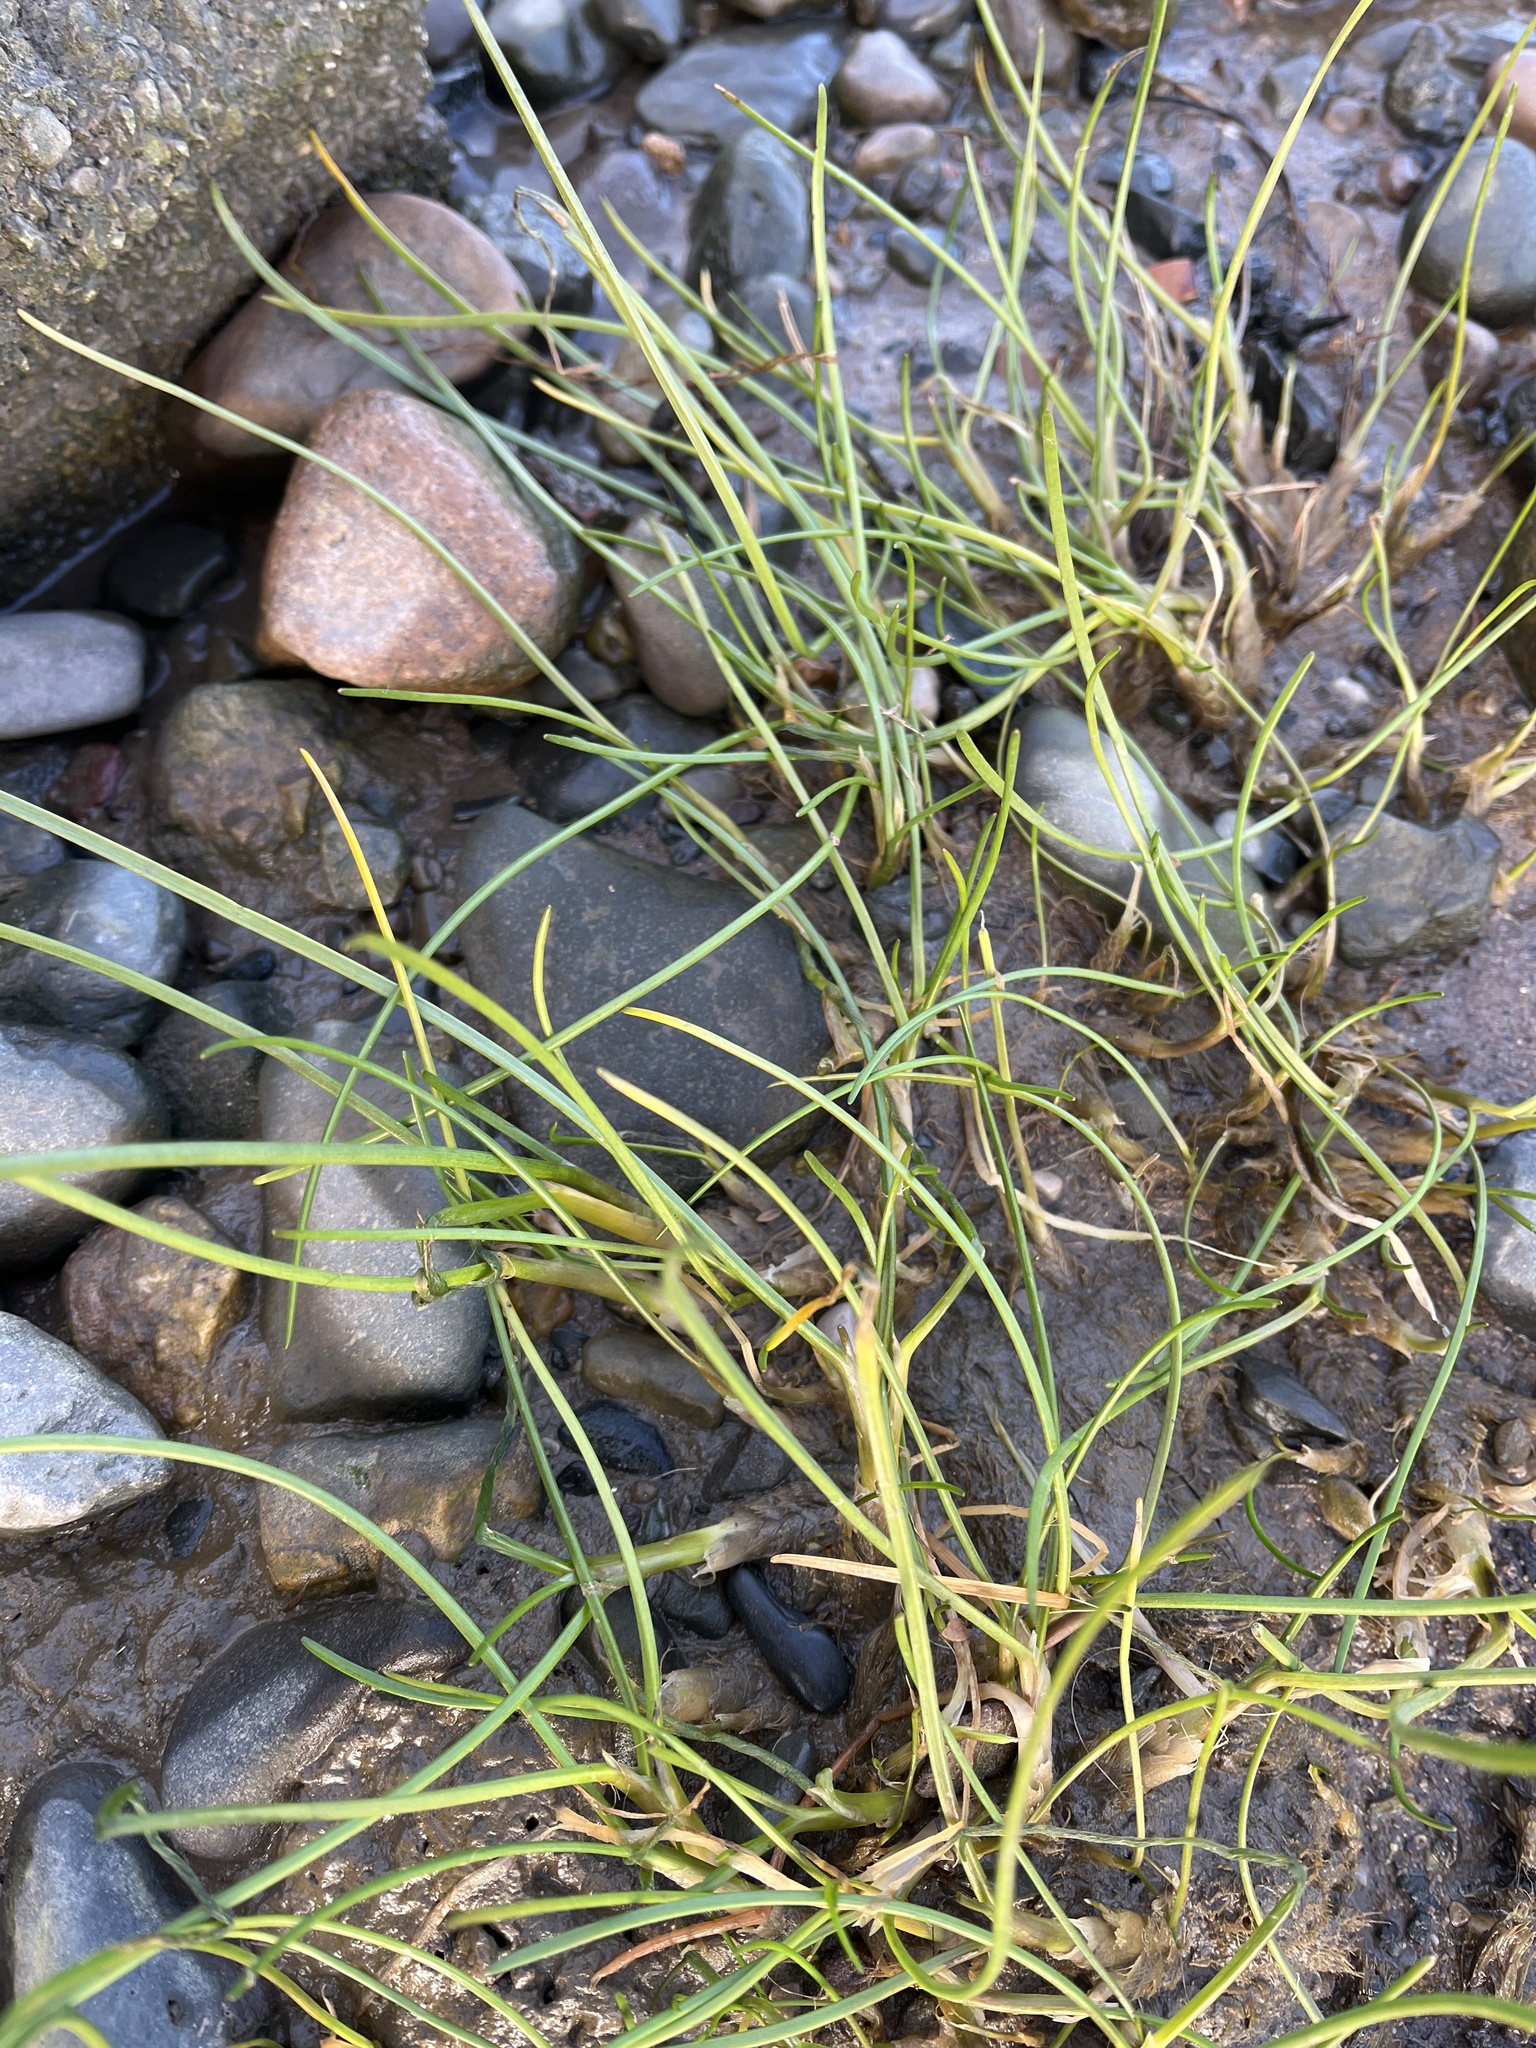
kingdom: Plantae
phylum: Tracheophyta
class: Liliopsida
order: Alismatales
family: Juncaginaceae
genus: Triglochin
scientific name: Triglochin maritima
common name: Sea arrowgrass
